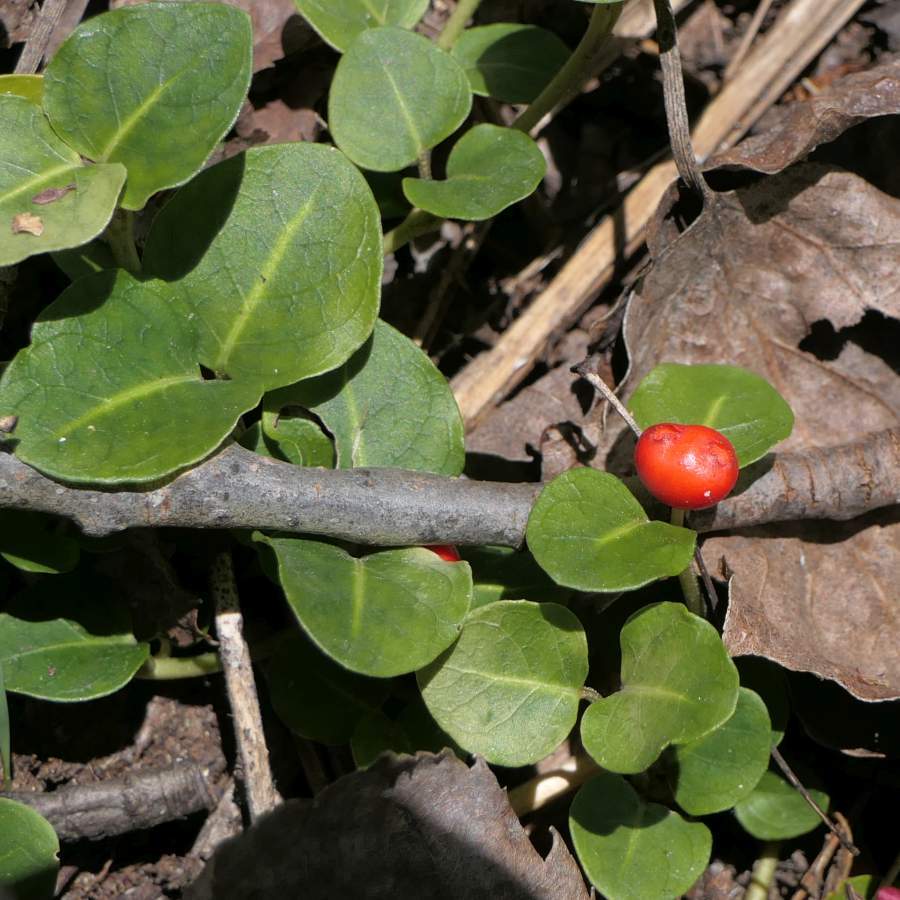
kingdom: Plantae
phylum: Tracheophyta
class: Magnoliopsida
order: Gentianales
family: Rubiaceae
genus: Mitchella
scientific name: Mitchella repens
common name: Partridge-berry
